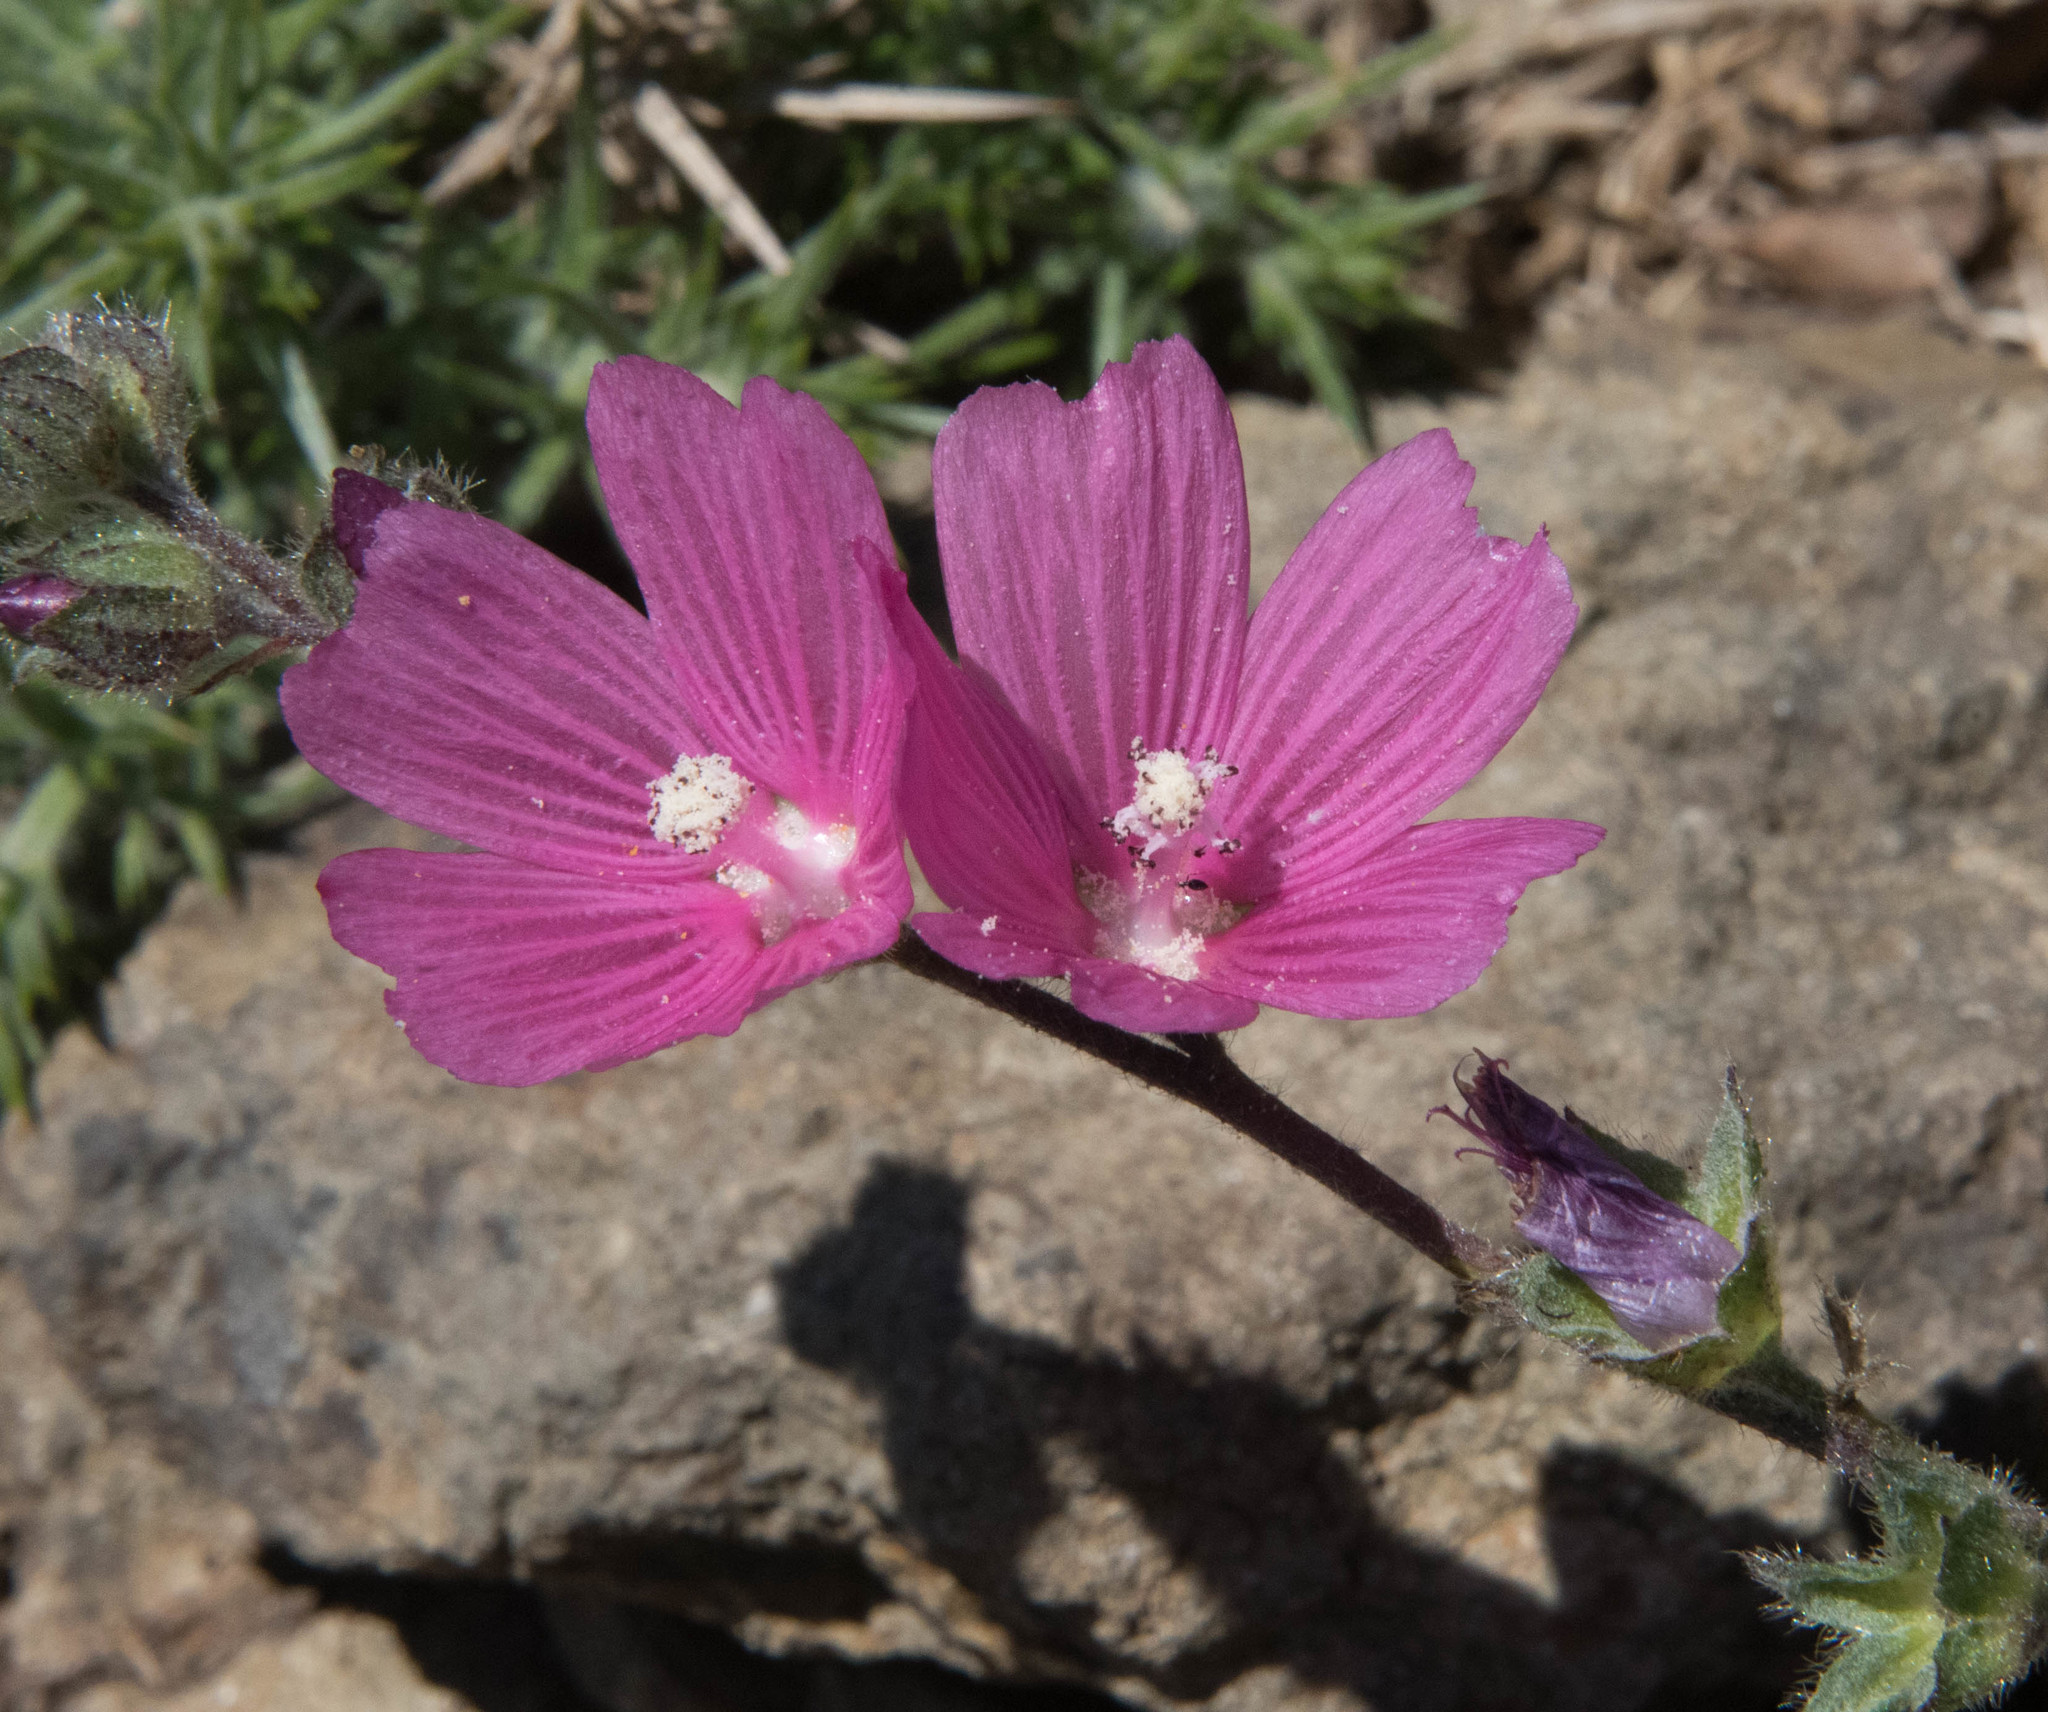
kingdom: Plantae
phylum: Tracheophyta
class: Magnoliopsida
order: Malvales
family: Malvaceae
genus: Sidalcea
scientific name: Sidalcea malviflora
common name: Greek mallow
